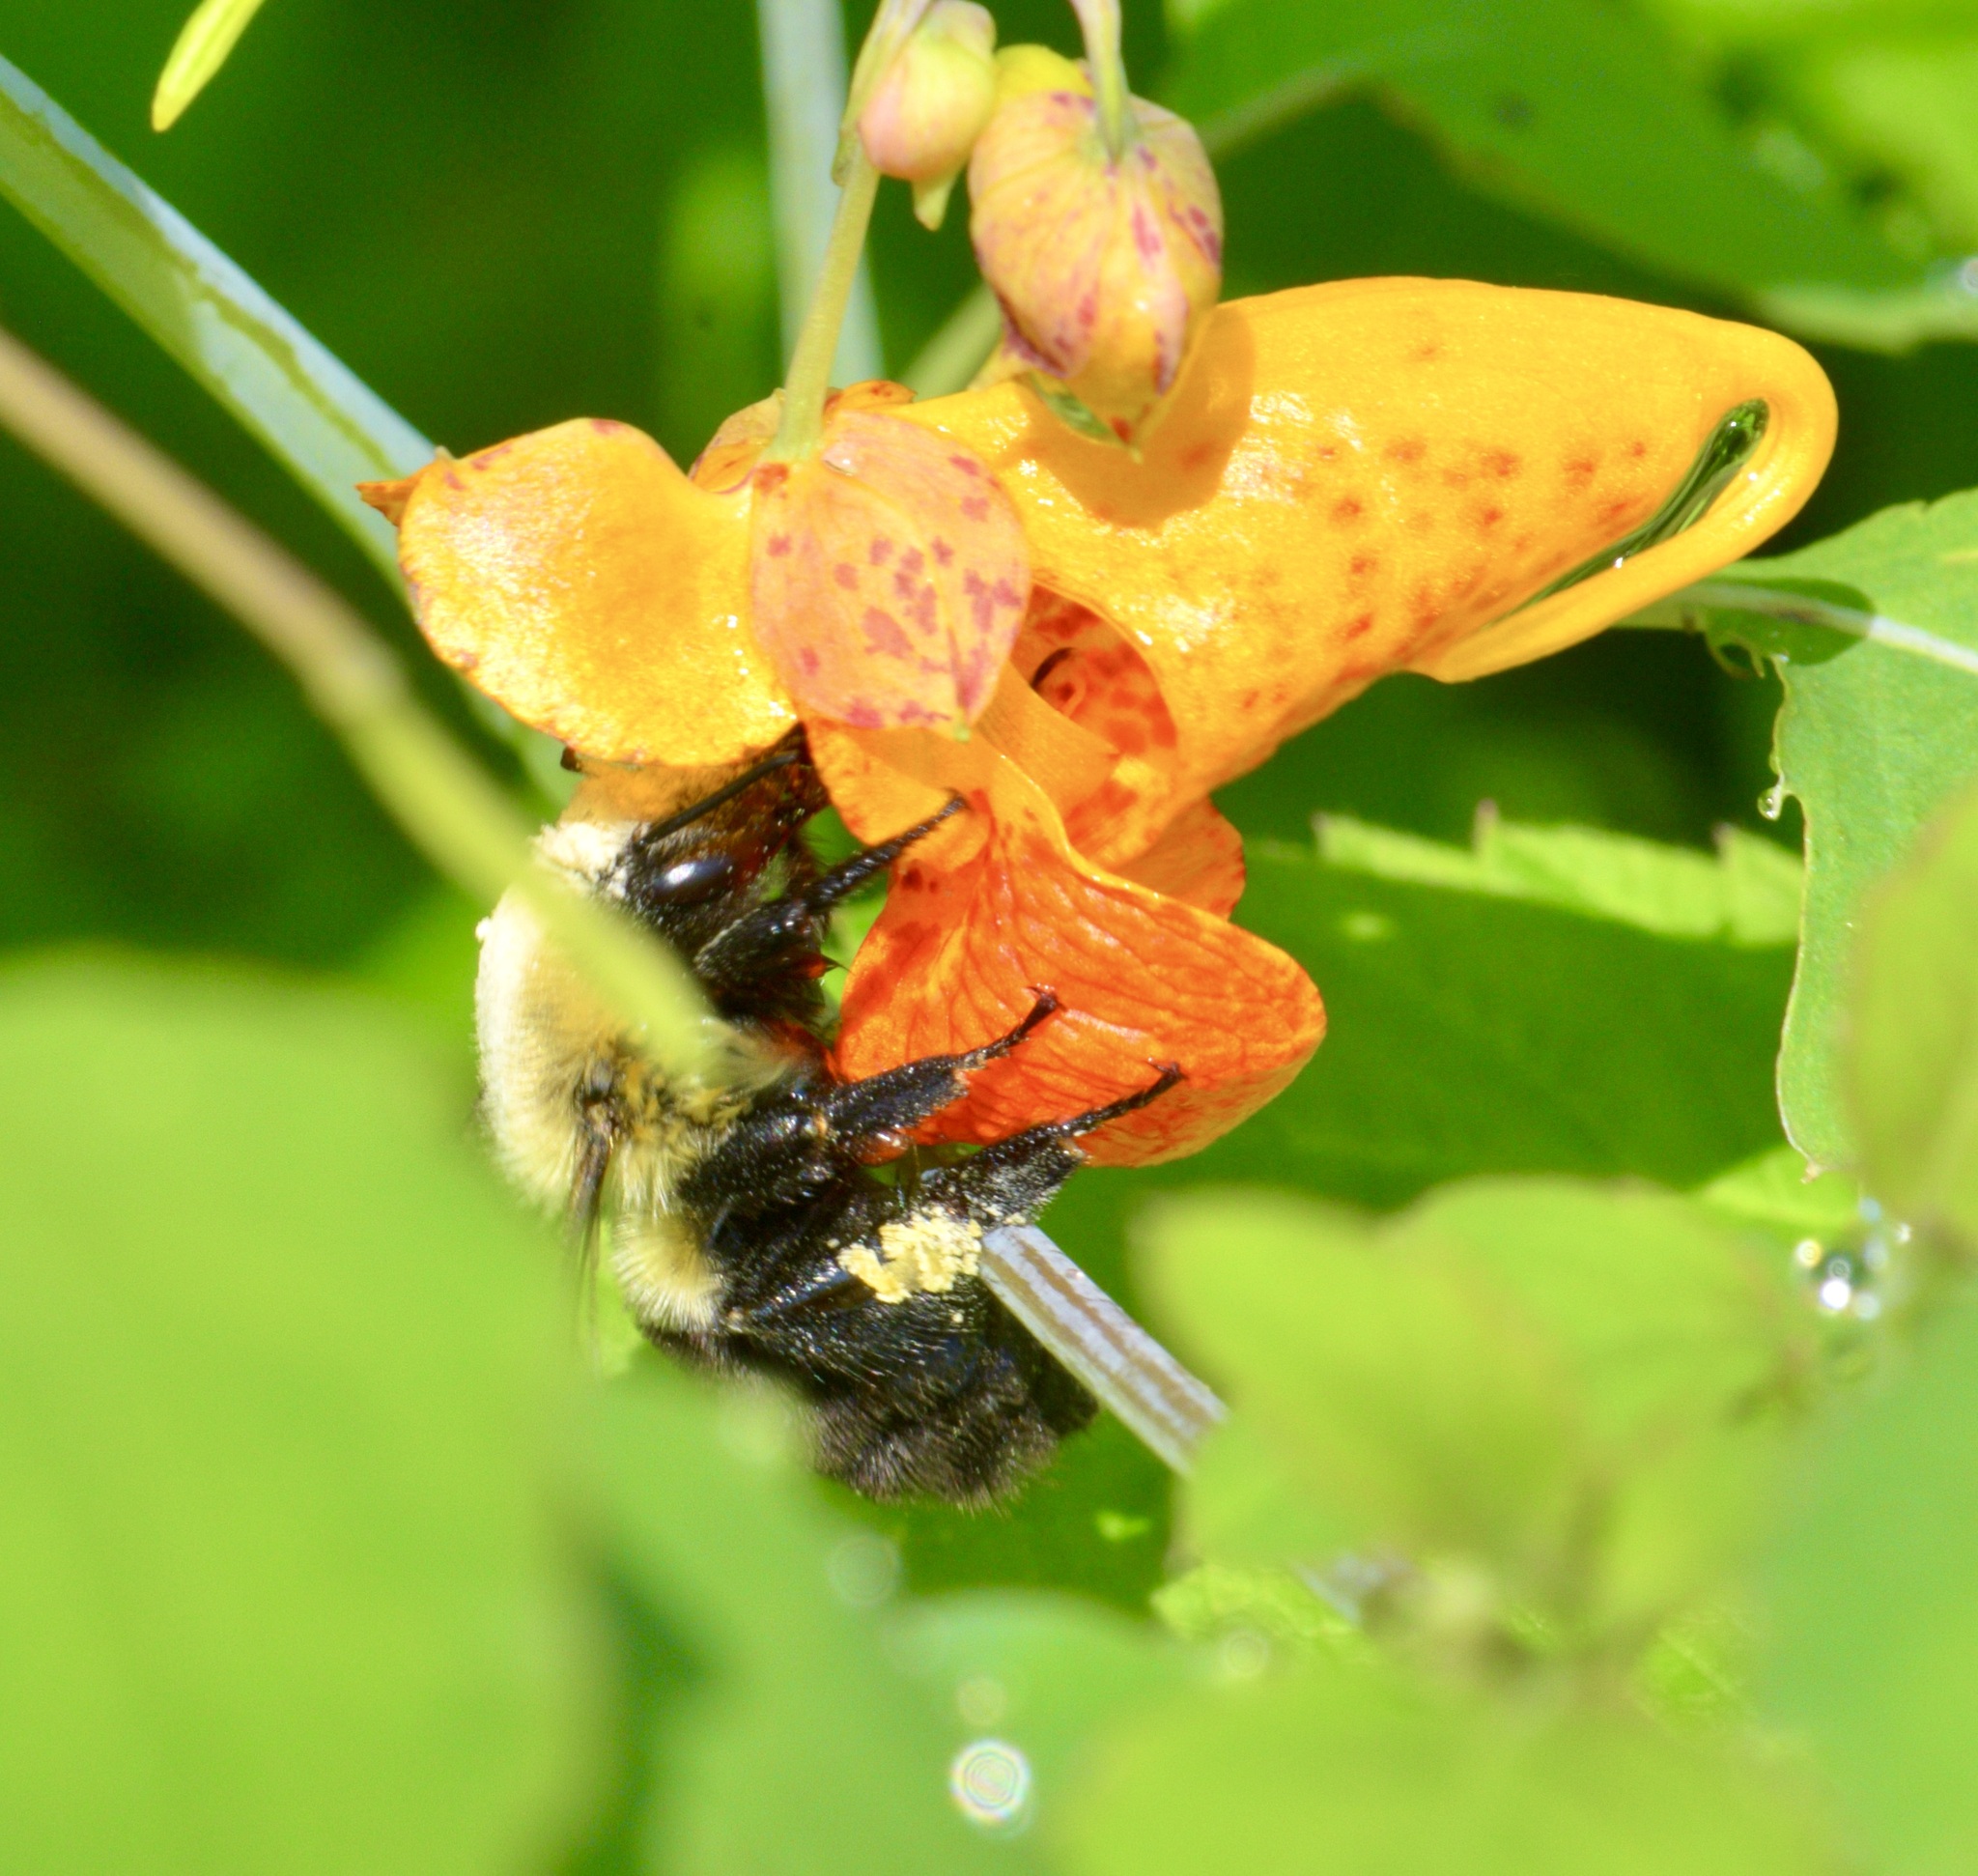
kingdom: Animalia
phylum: Arthropoda
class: Insecta
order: Hymenoptera
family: Apidae
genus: Bombus
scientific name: Bombus impatiens
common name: Common eastern bumble bee
